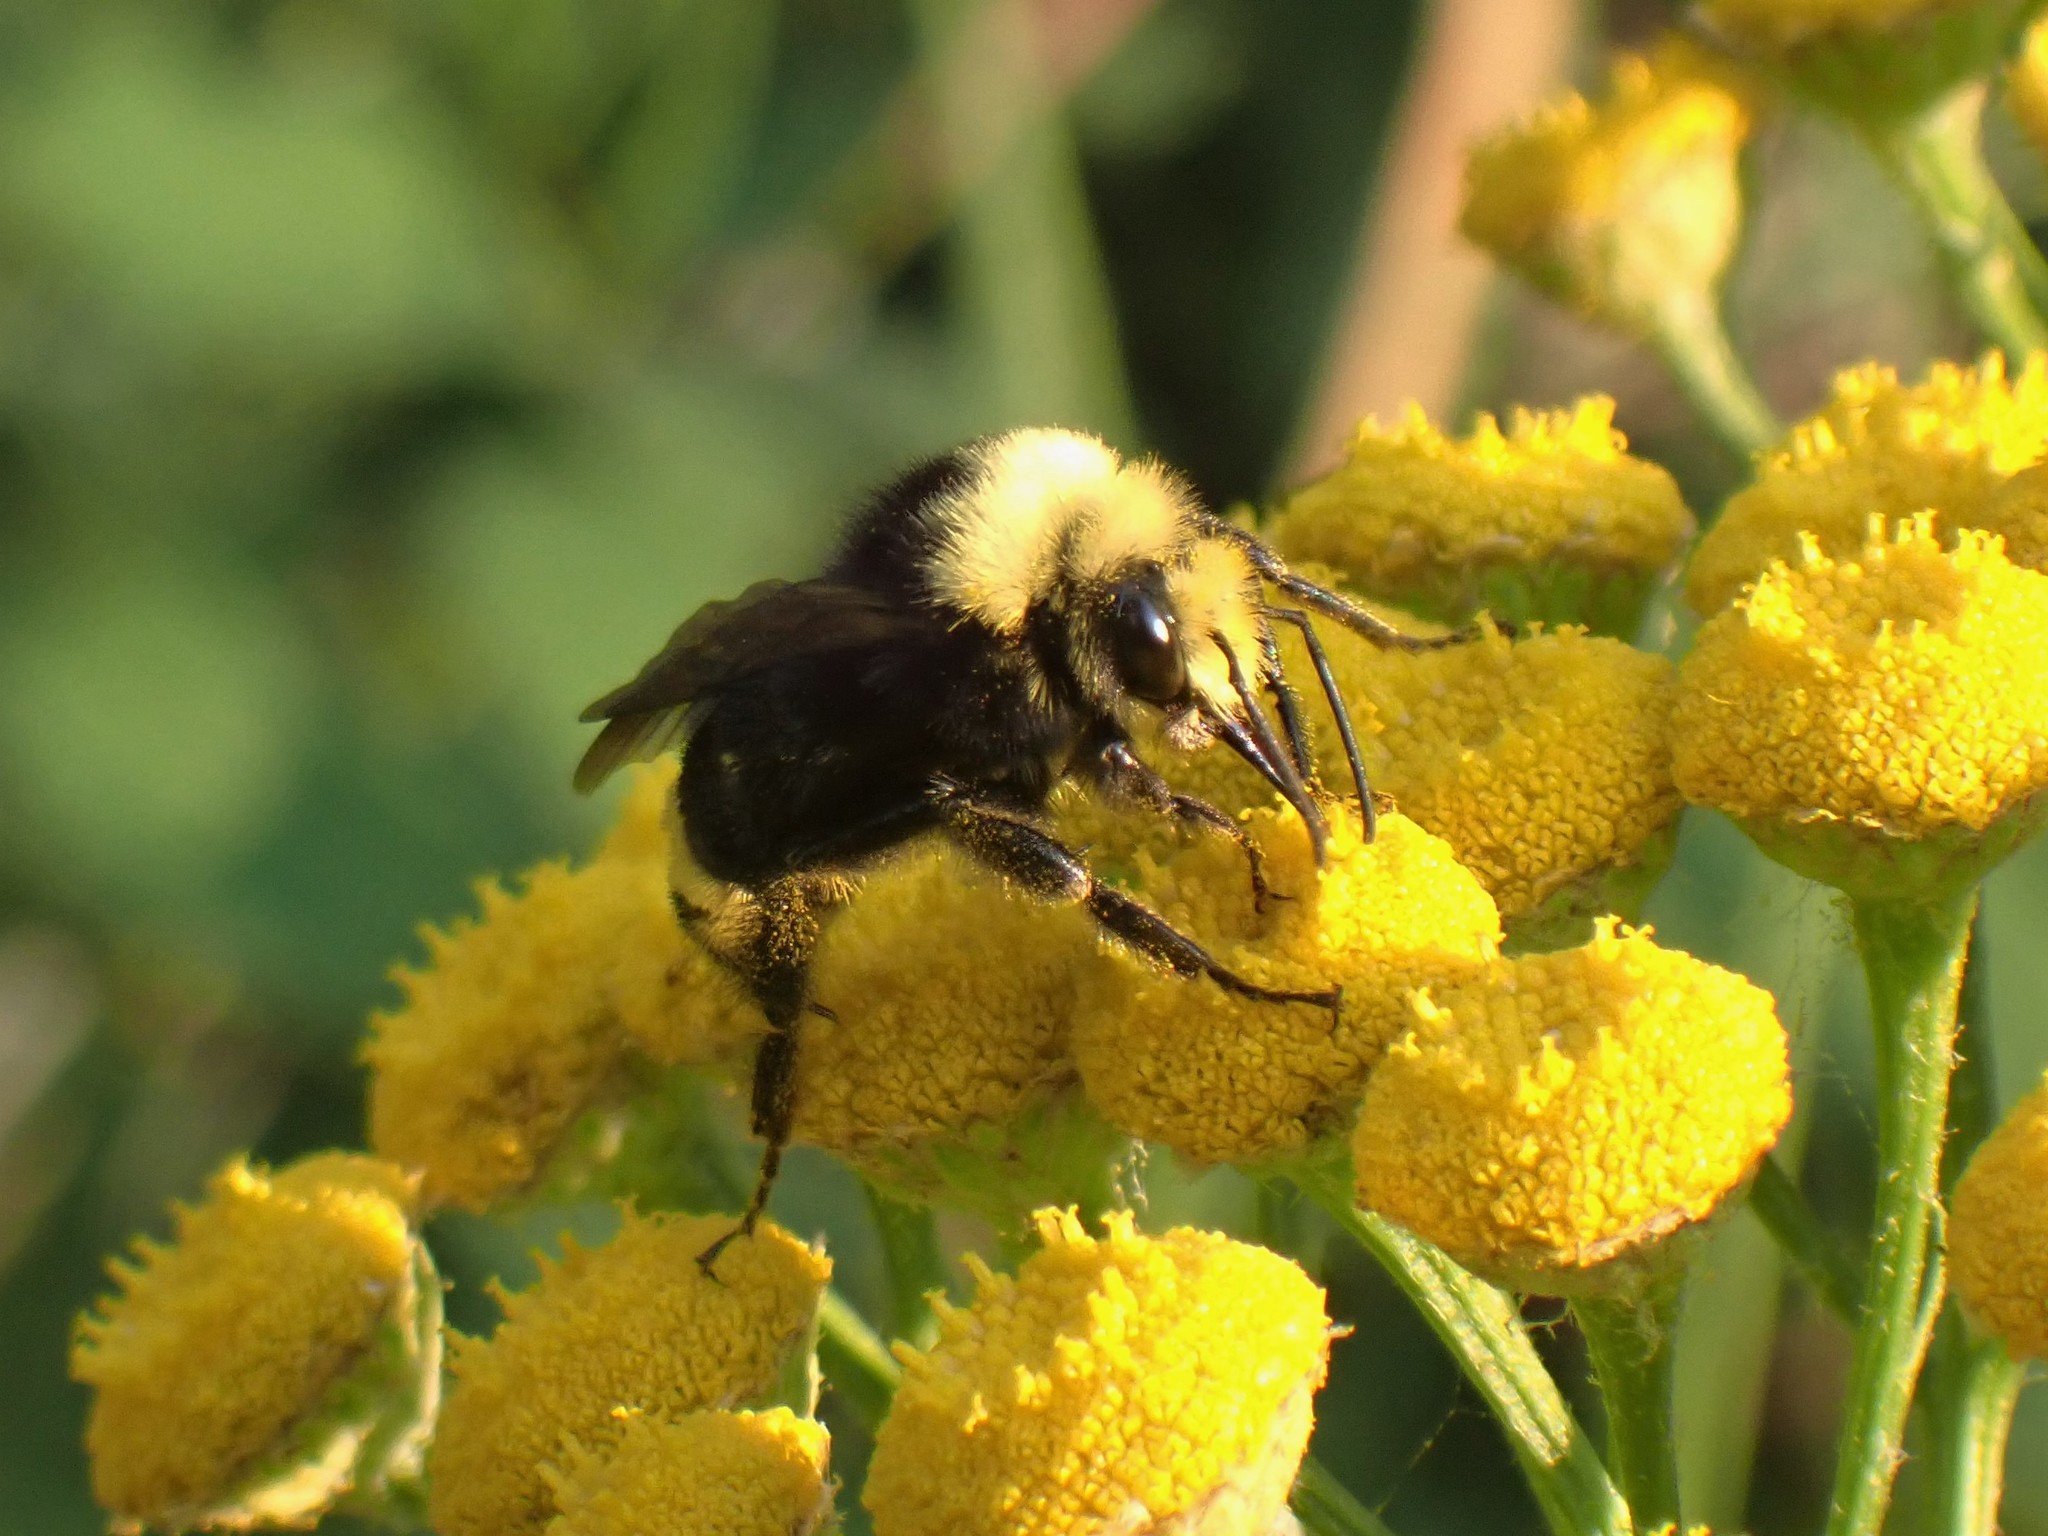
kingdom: Animalia
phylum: Arthropoda
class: Insecta
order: Hymenoptera
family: Apidae
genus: Pyrobombus
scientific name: Pyrobombus
